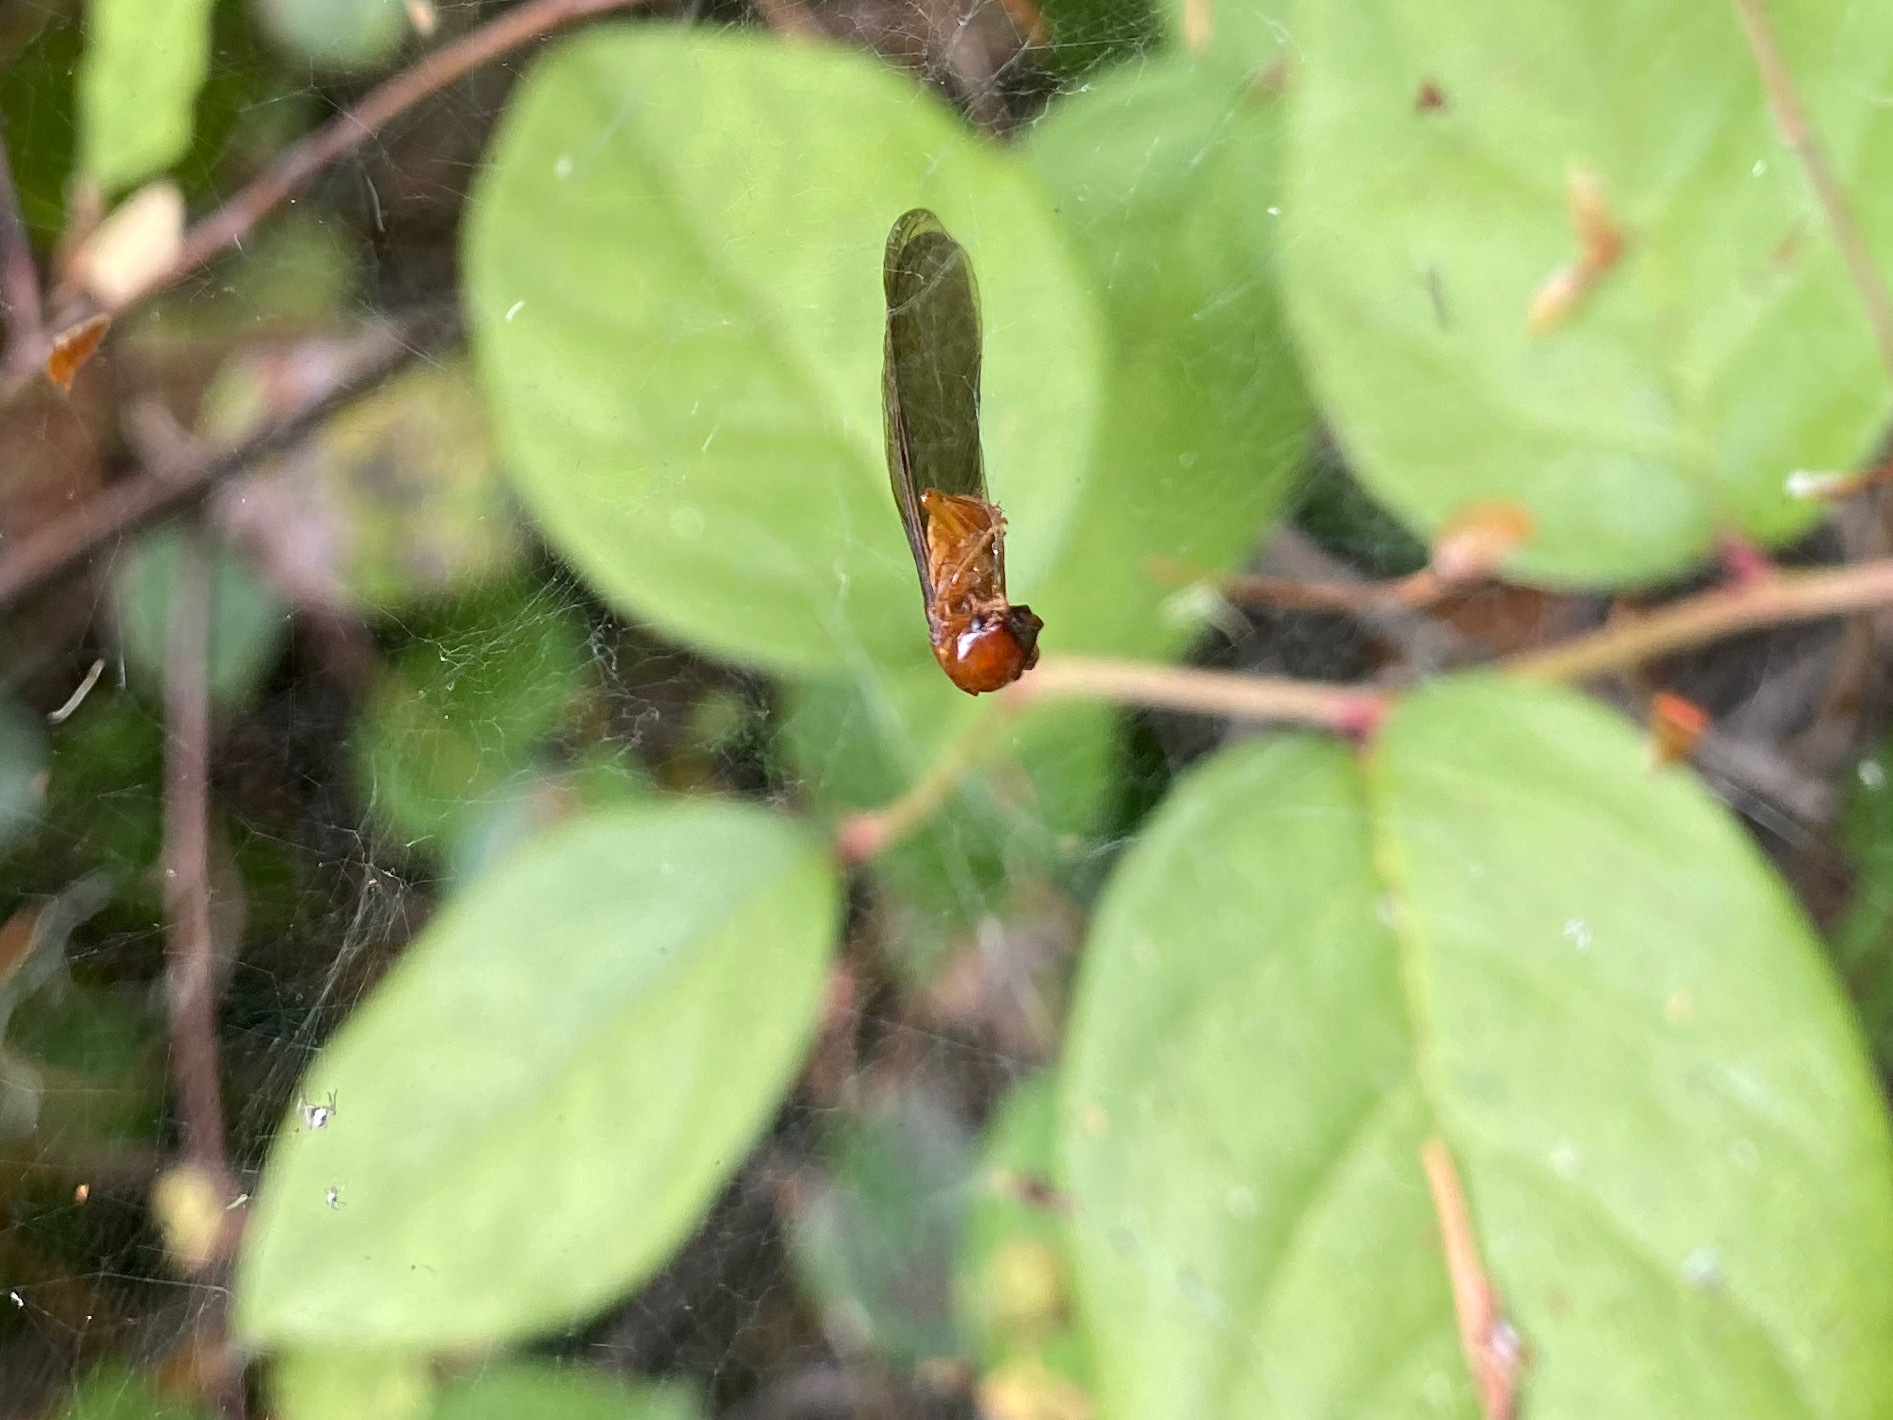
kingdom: Animalia
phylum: Arthropoda
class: Insecta
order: Blattodea
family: Archotermopsidae
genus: Zootermopsis
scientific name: Zootermopsis angusticollis
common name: Rottenwood termite
